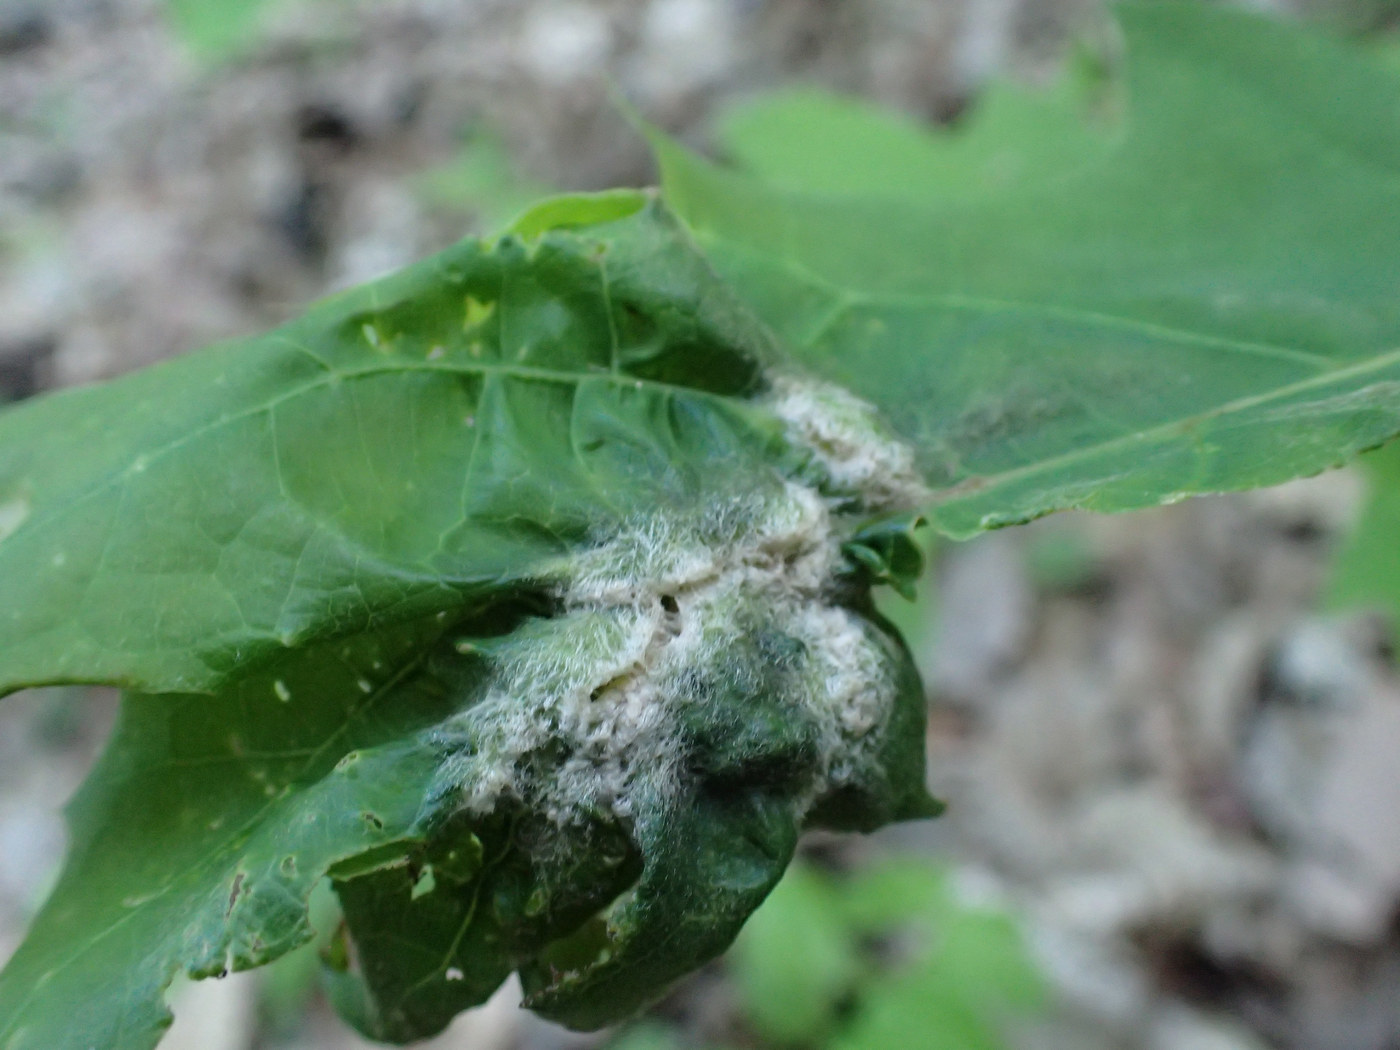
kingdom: Animalia
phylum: Arthropoda
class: Insecta
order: Diptera
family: Cecidomyiidae
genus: Macrodiplosis
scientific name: Macrodiplosis niveipila
